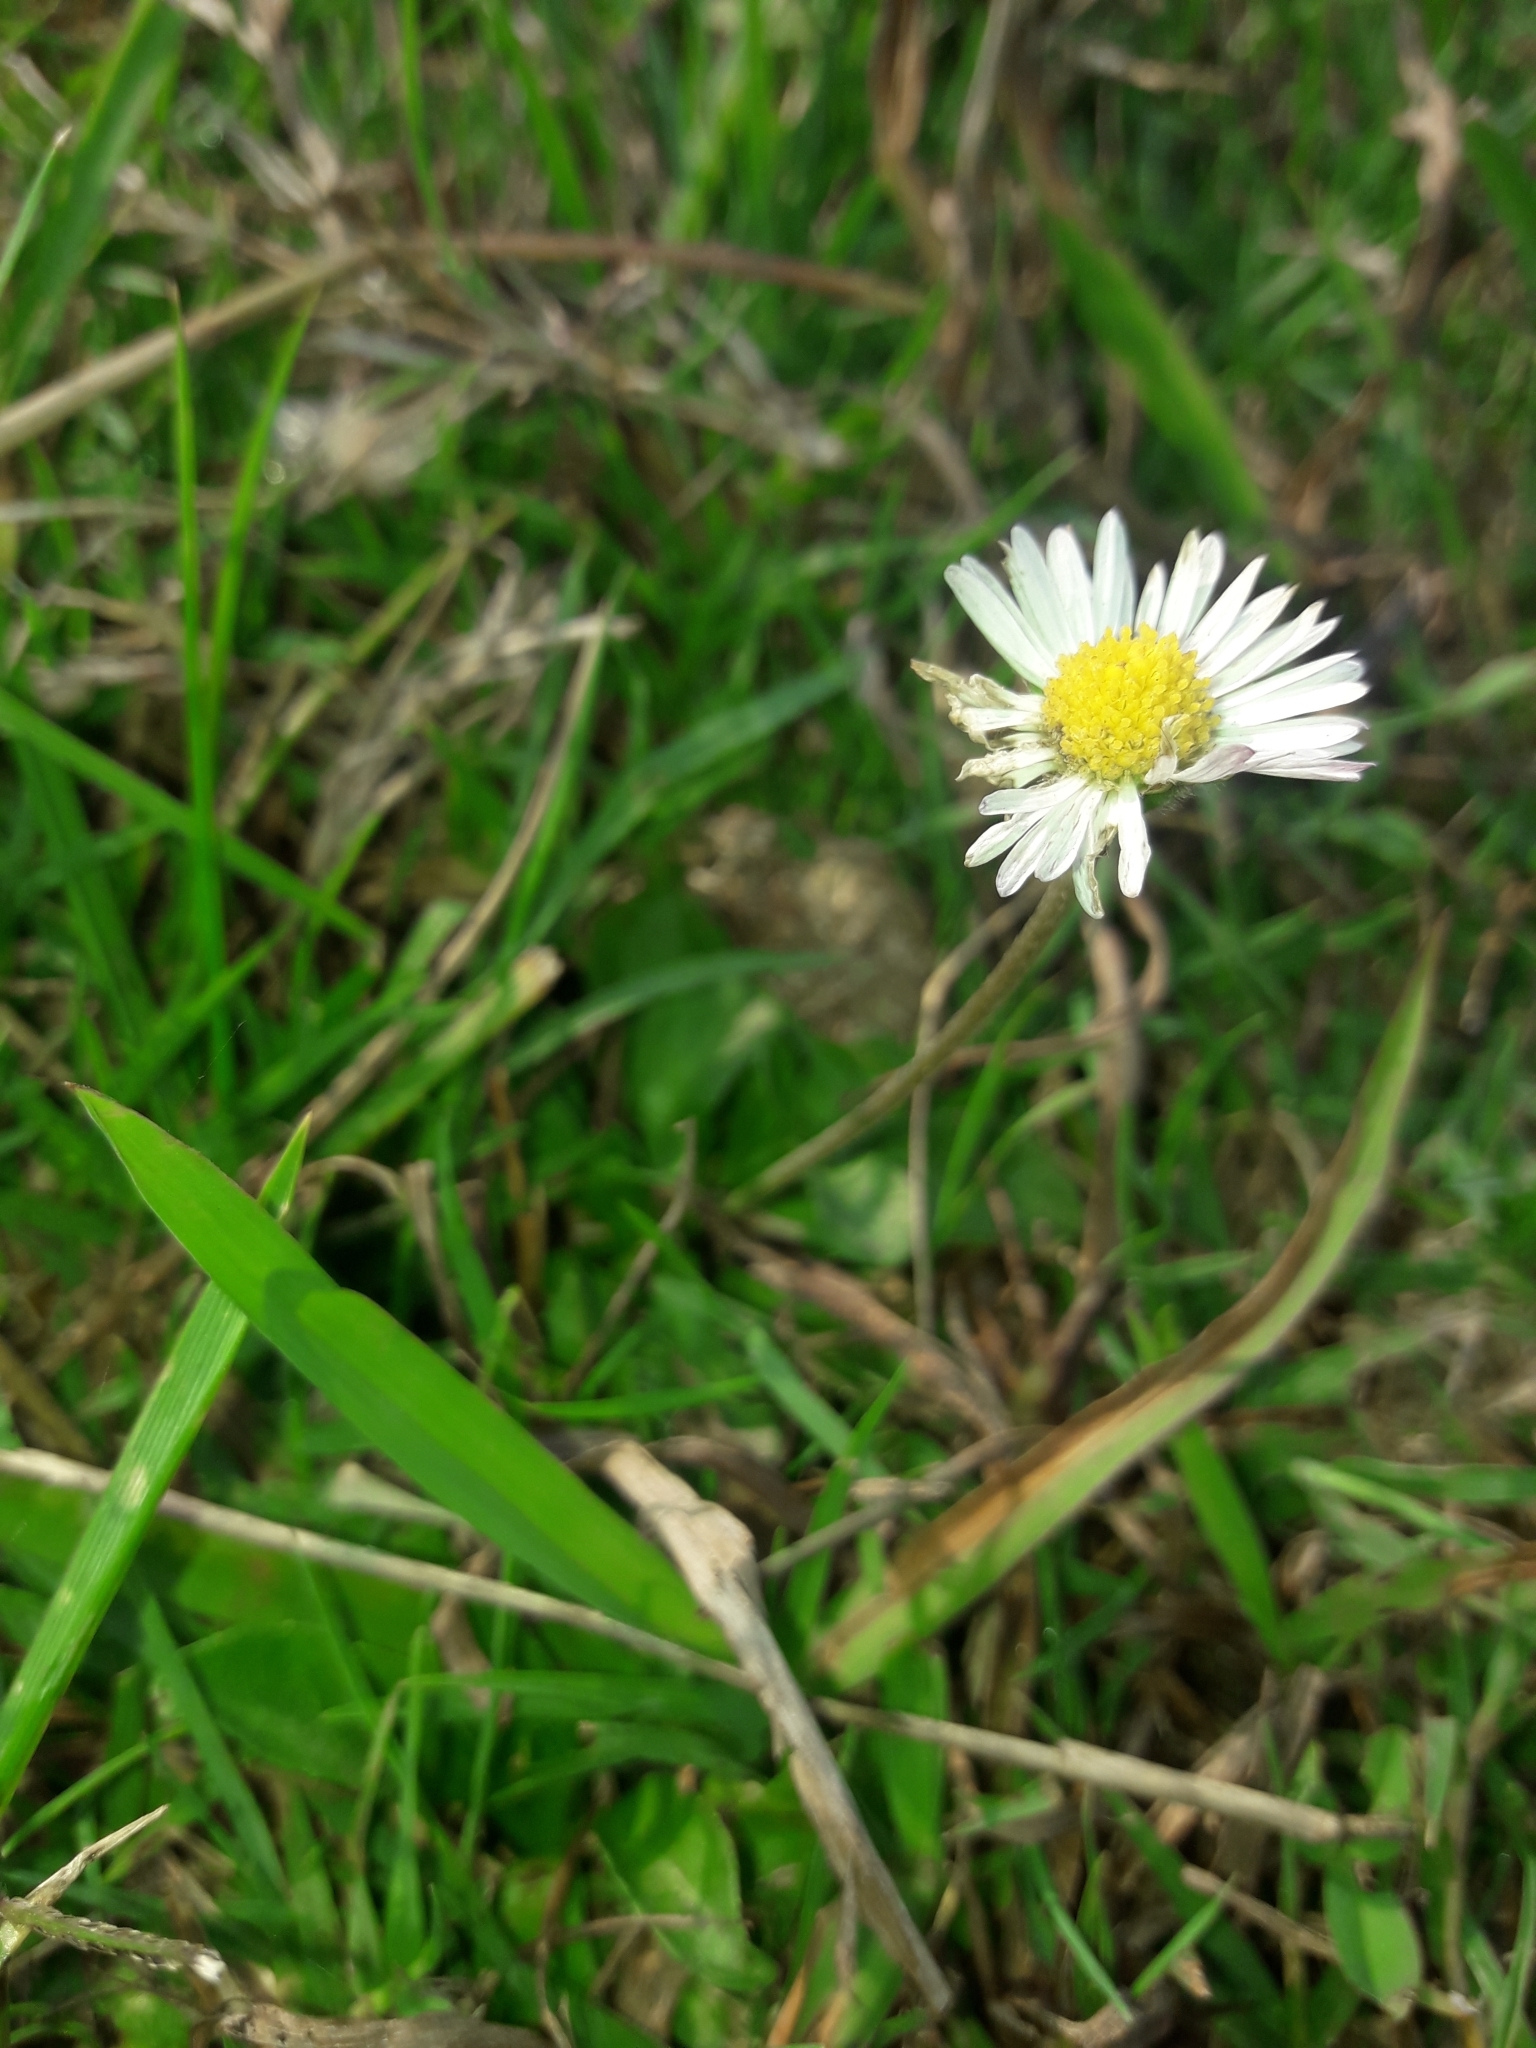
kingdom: Plantae
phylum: Tracheophyta
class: Magnoliopsida
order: Asterales
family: Asteraceae
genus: Bellis
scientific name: Bellis perennis
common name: Lawndaisy
